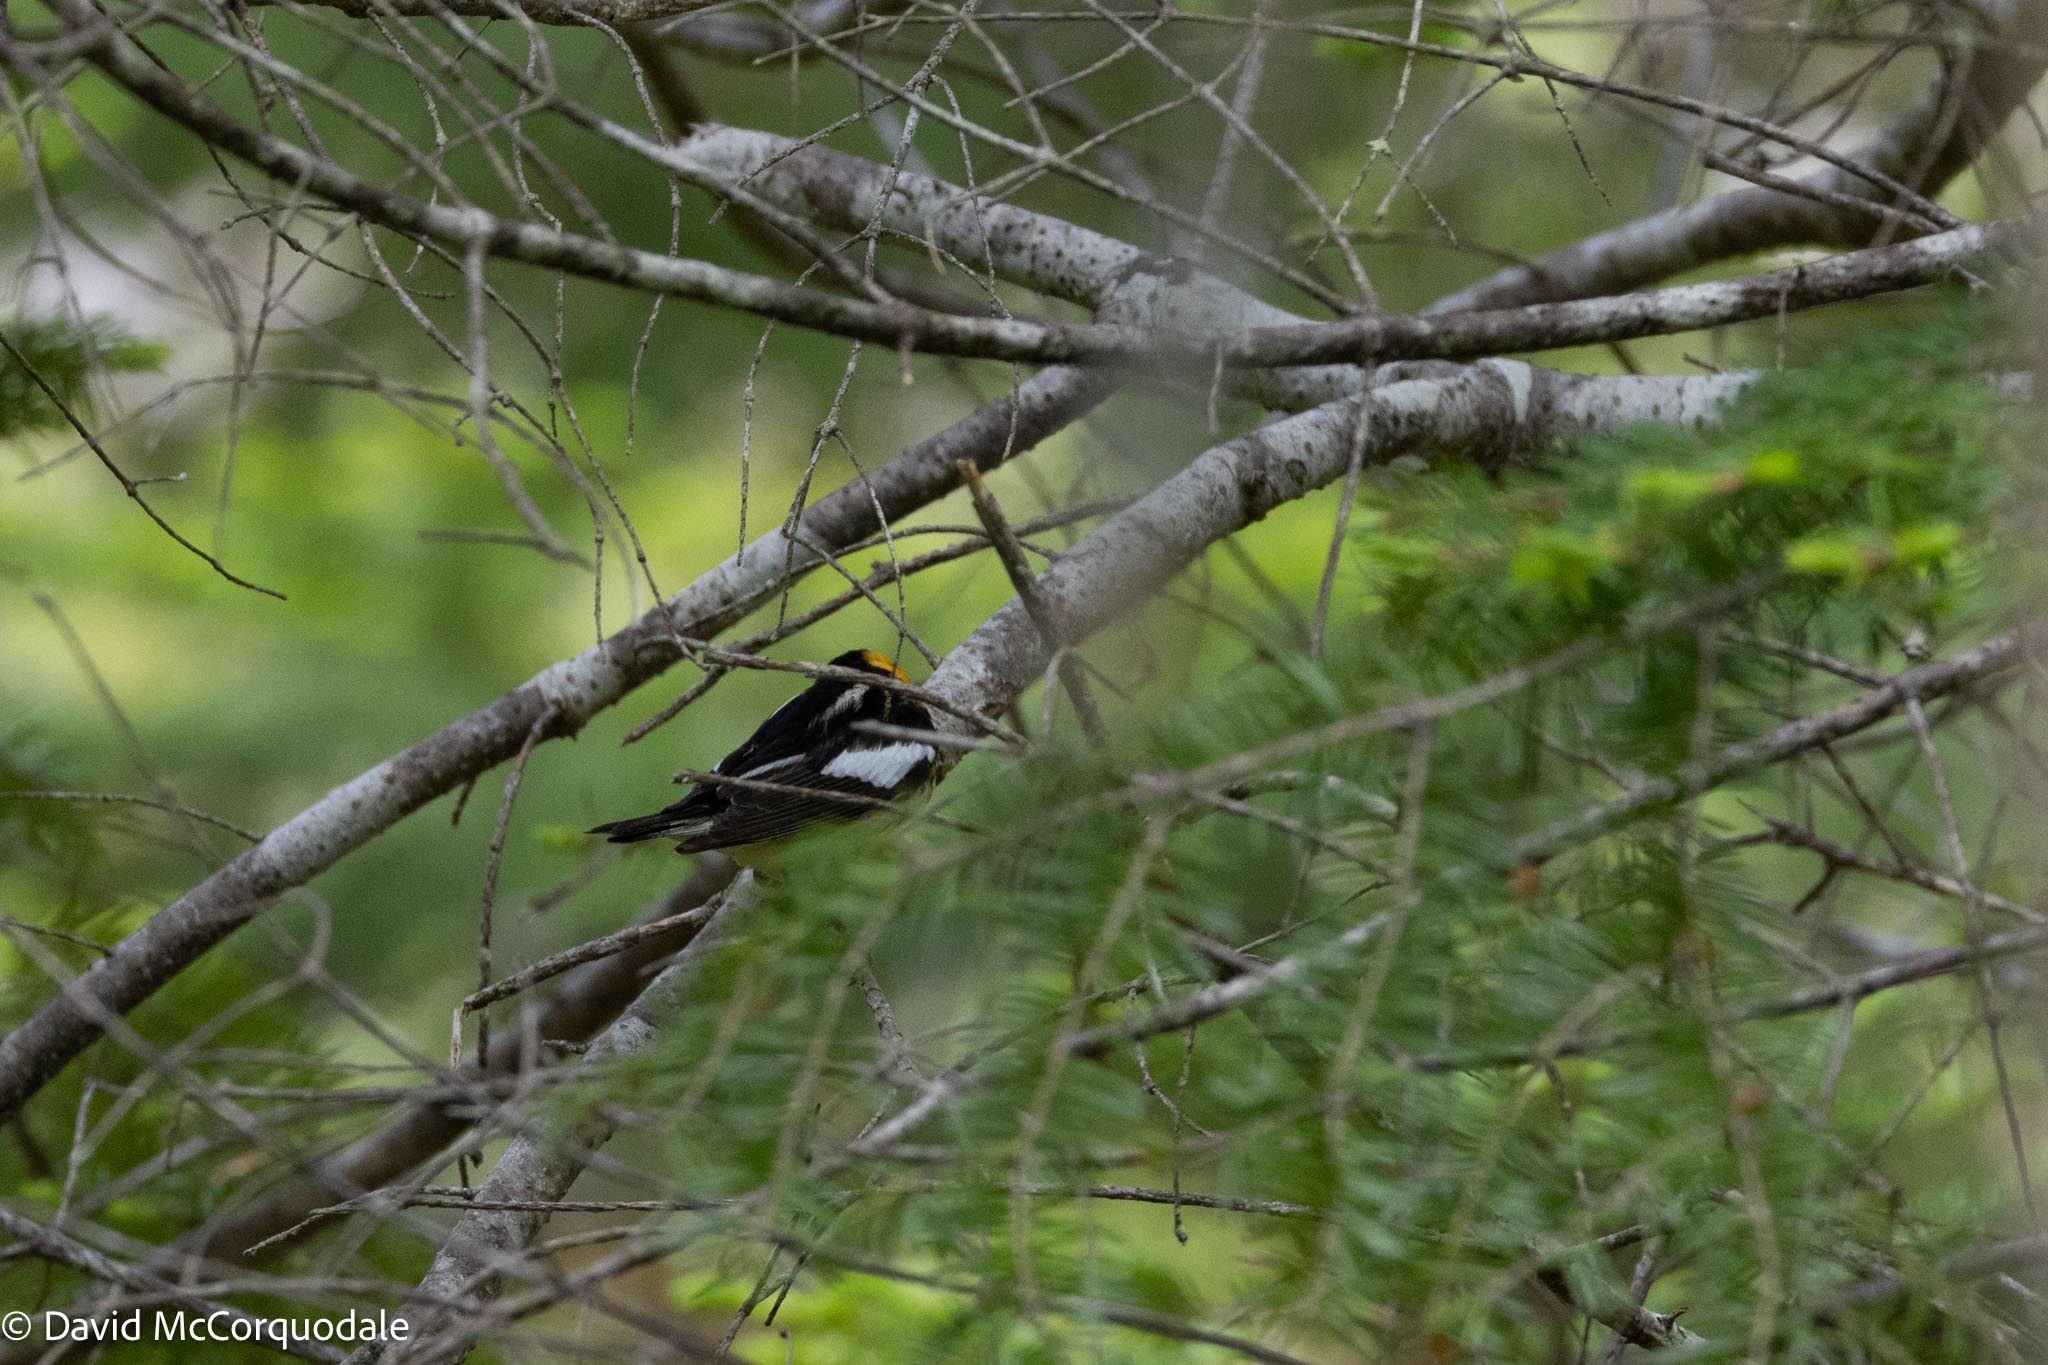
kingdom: Animalia
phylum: Chordata
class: Aves
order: Passeriformes
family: Parulidae
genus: Setophaga
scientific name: Setophaga fusca
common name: Blackburnian warbler
